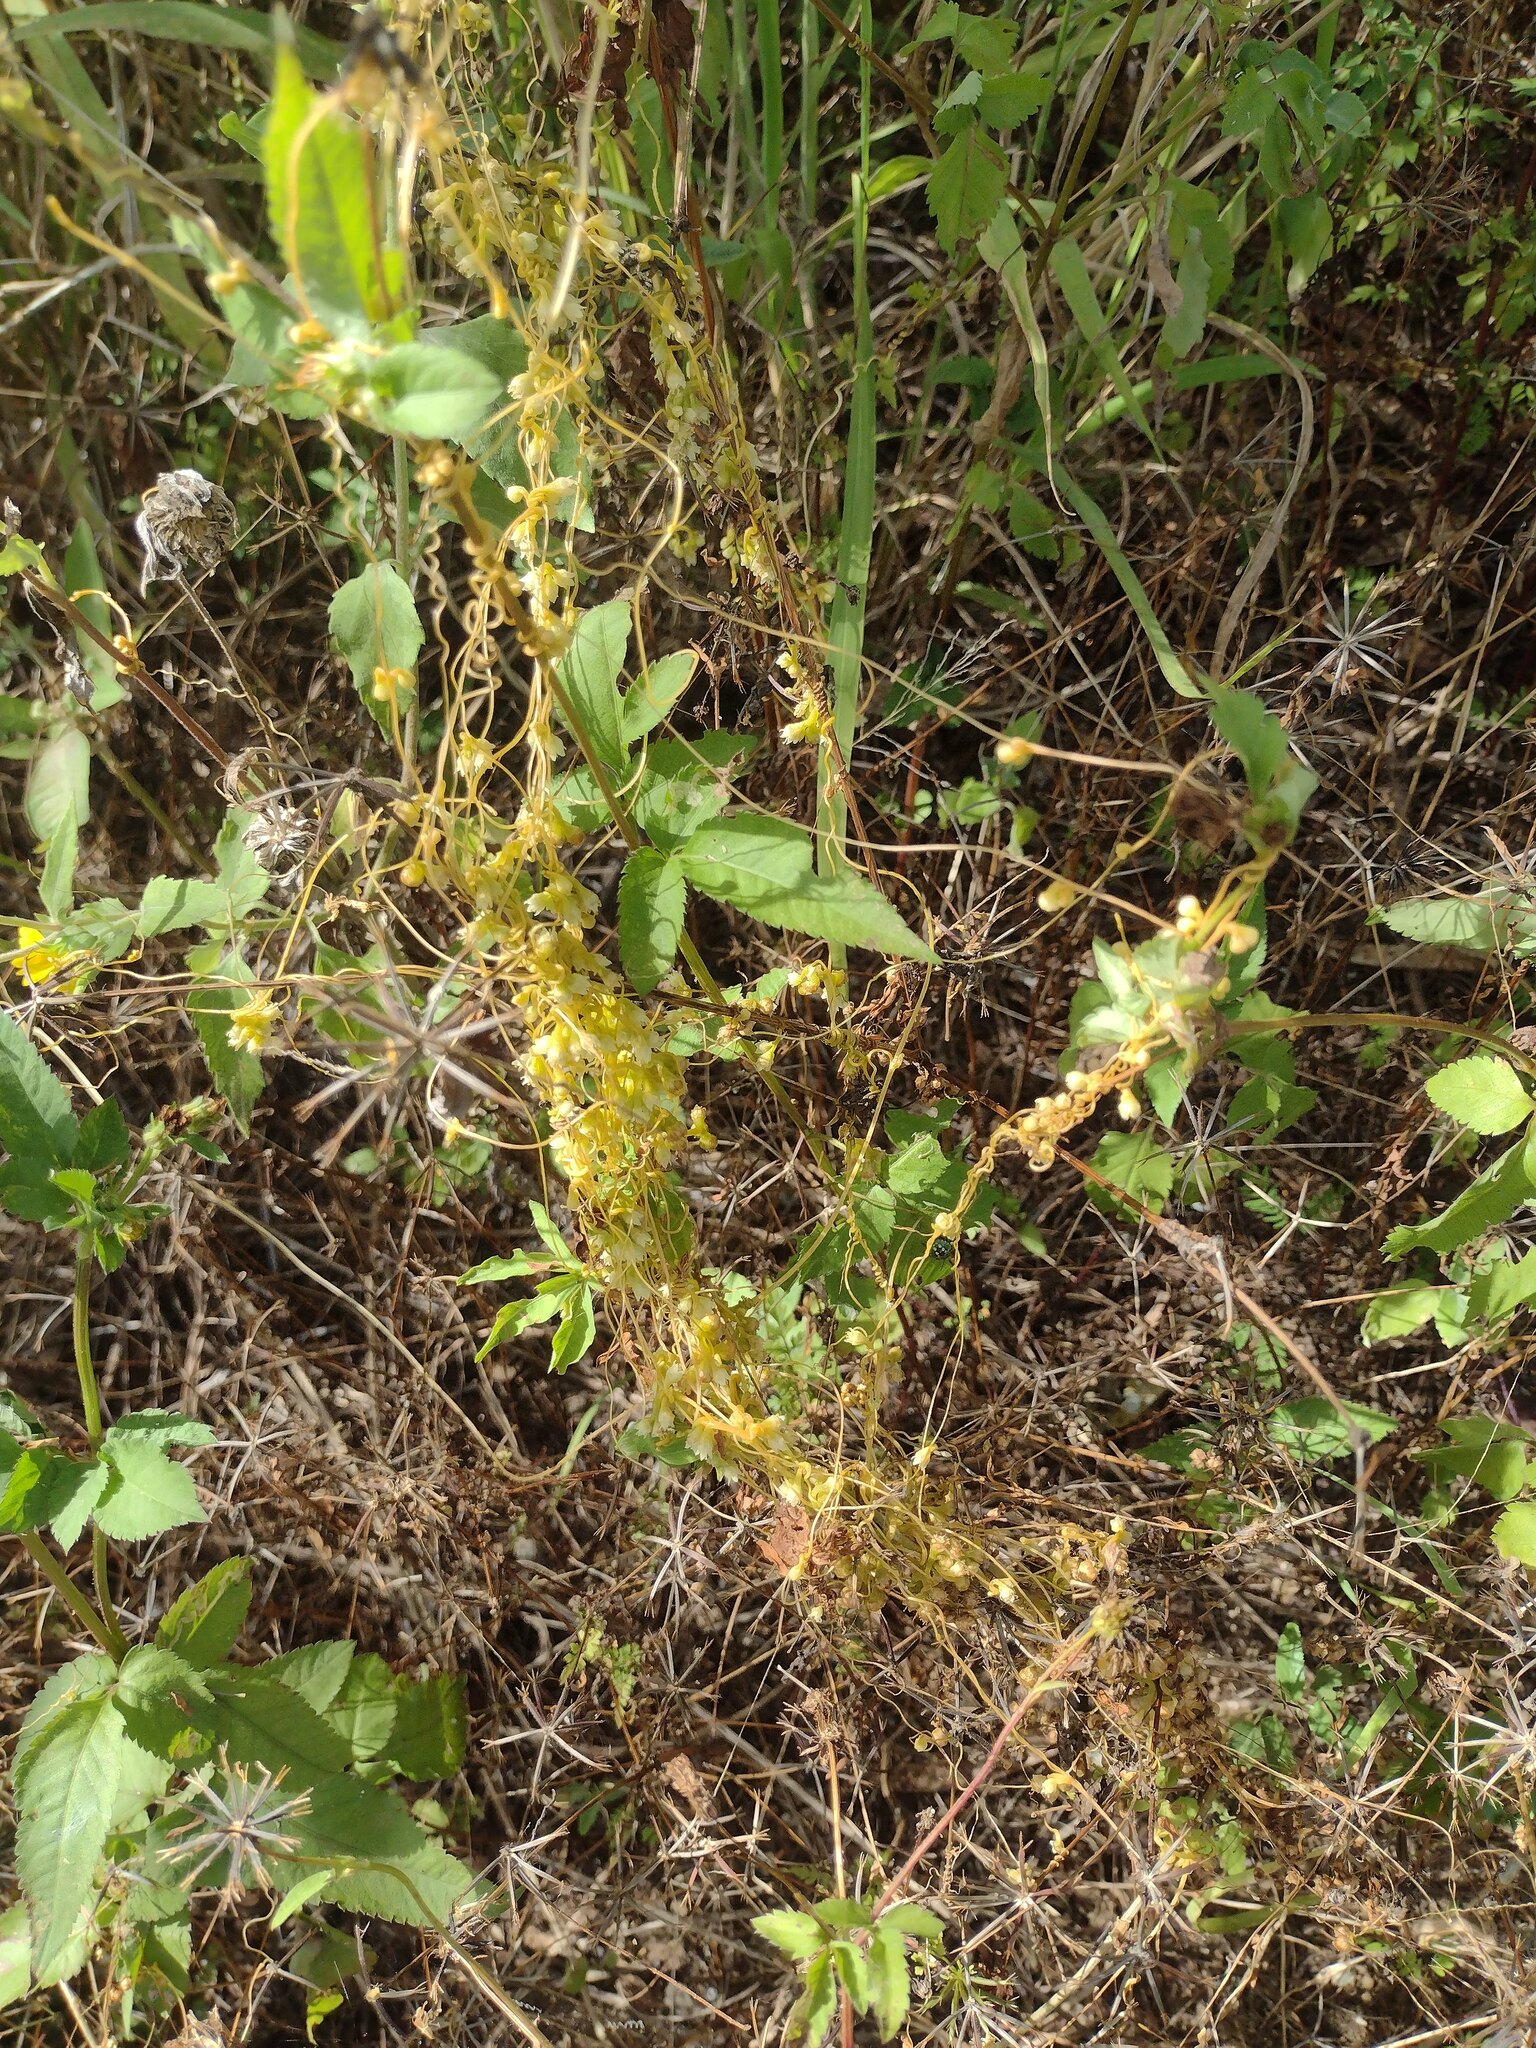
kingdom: Plantae
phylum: Tracheophyta
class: Magnoliopsida
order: Solanales
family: Convolvulaceae
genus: Cuscuta
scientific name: Cuscuta sandwichiana
